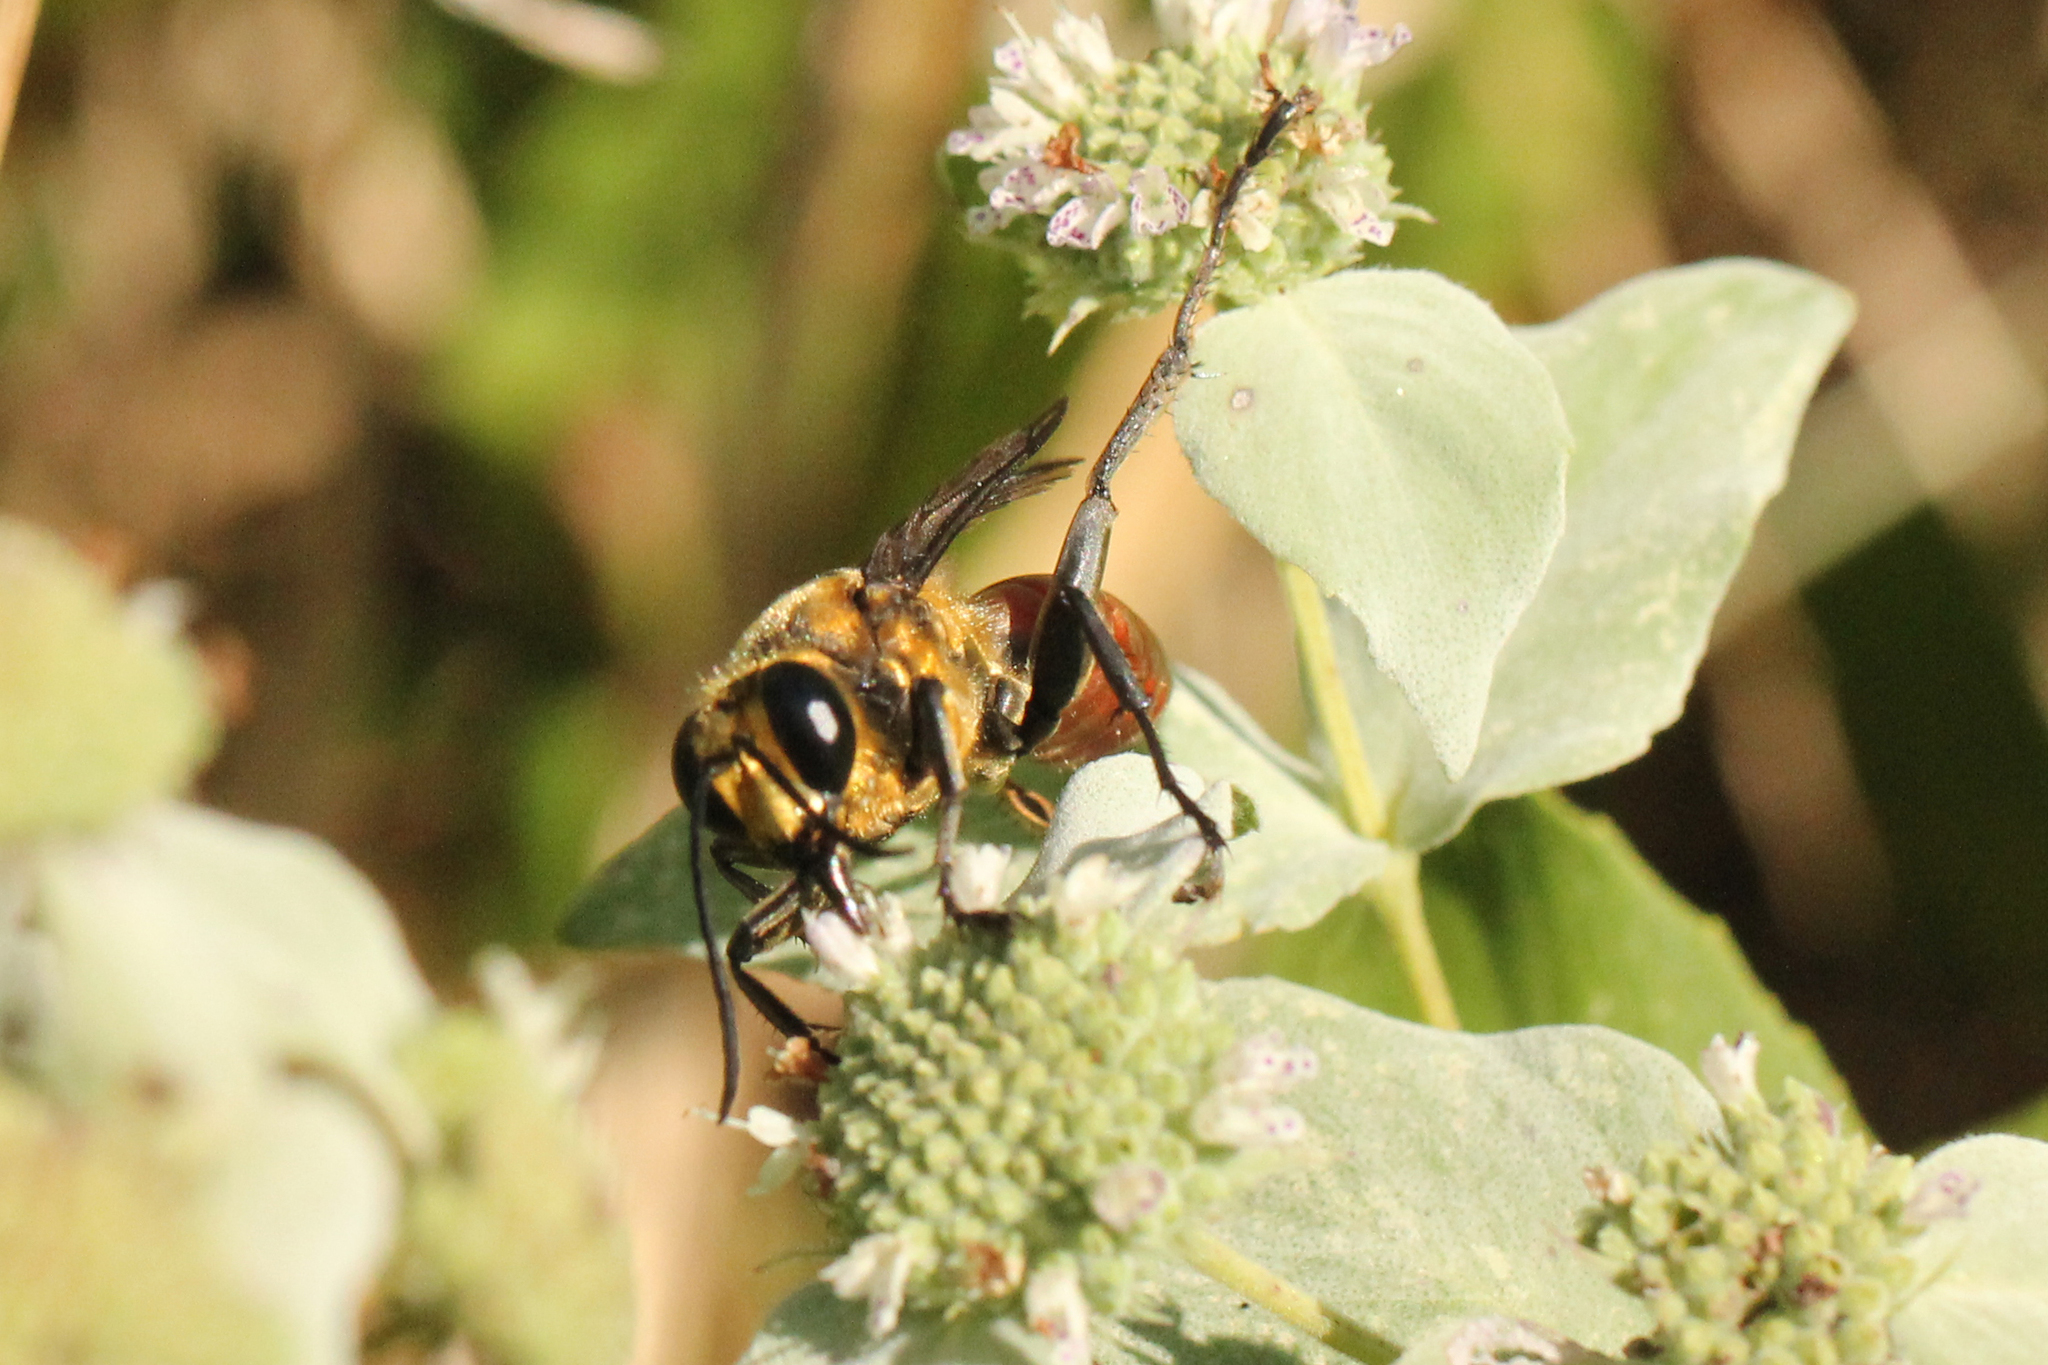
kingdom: Animalia
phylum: Arthropoda
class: Insecta
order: Hymenoptera
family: Sphecidae
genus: Sphex
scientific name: Sphex habenus
